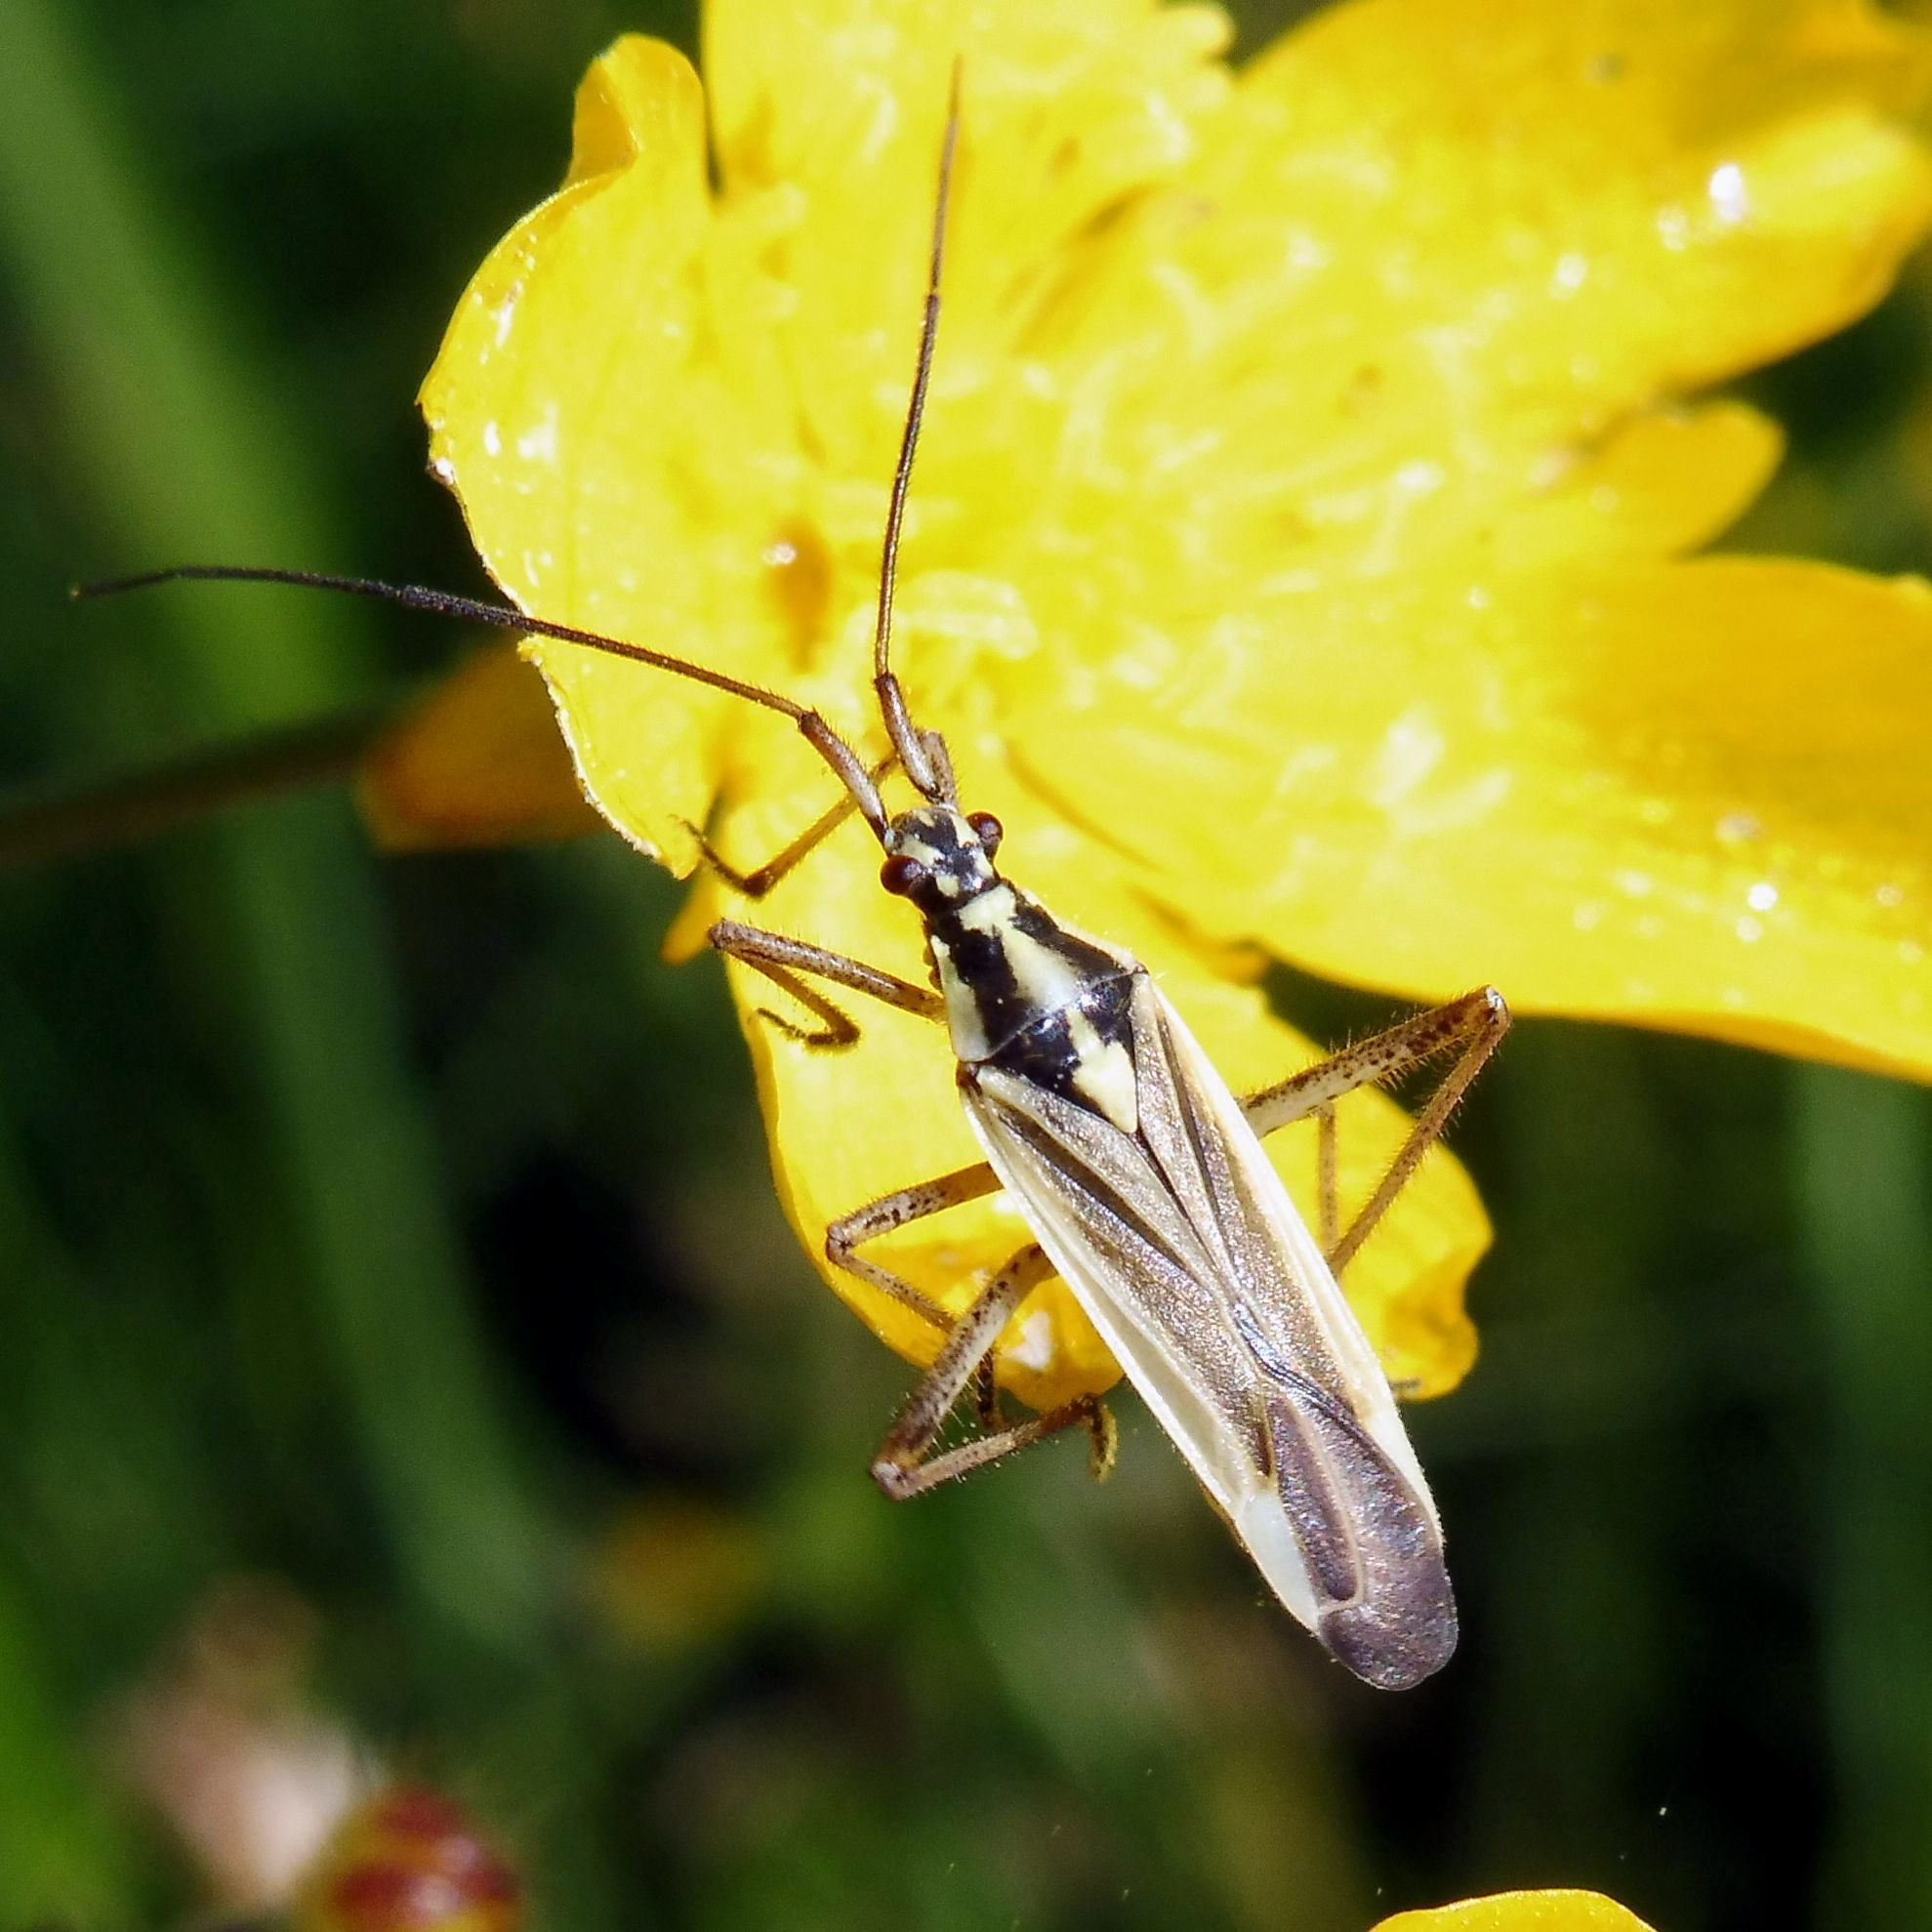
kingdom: Animalia
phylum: Arthropoda
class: Insecta
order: Hemiptera
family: Miridae
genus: Leptopterna
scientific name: Leptopterna dolabrata
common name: Meadow plant bug
